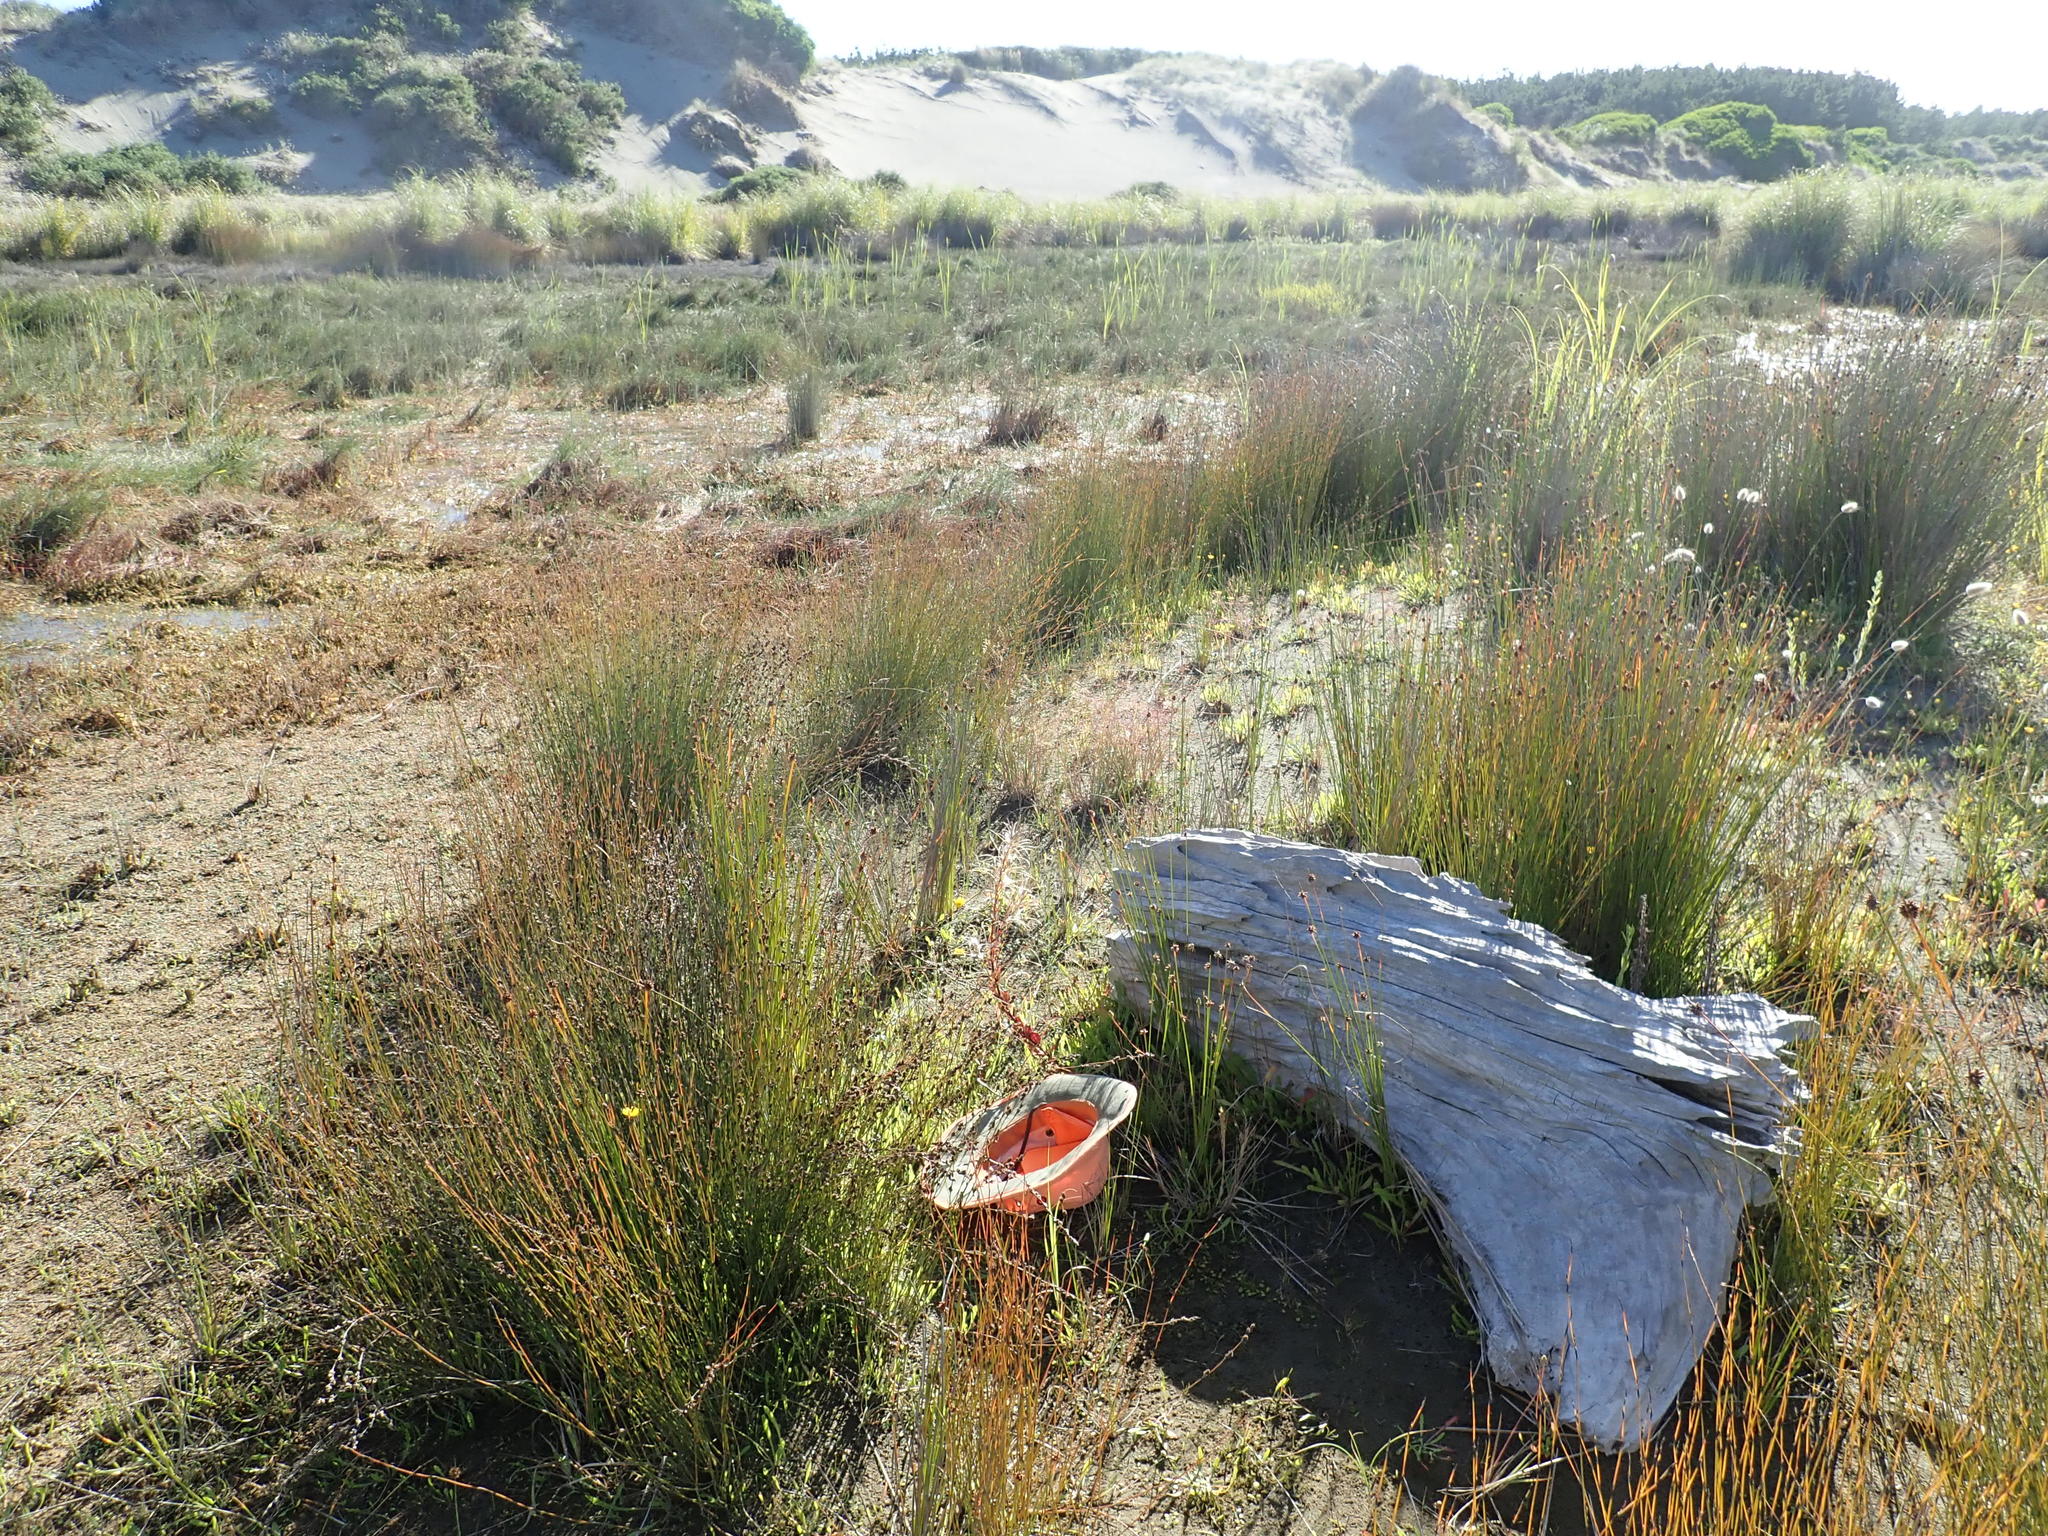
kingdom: Plantae
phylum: Tracheophyta
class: Magnoliopsida
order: Myrtales
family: Onagraceae
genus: Epilobium
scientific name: Epilobium billardiereanum
